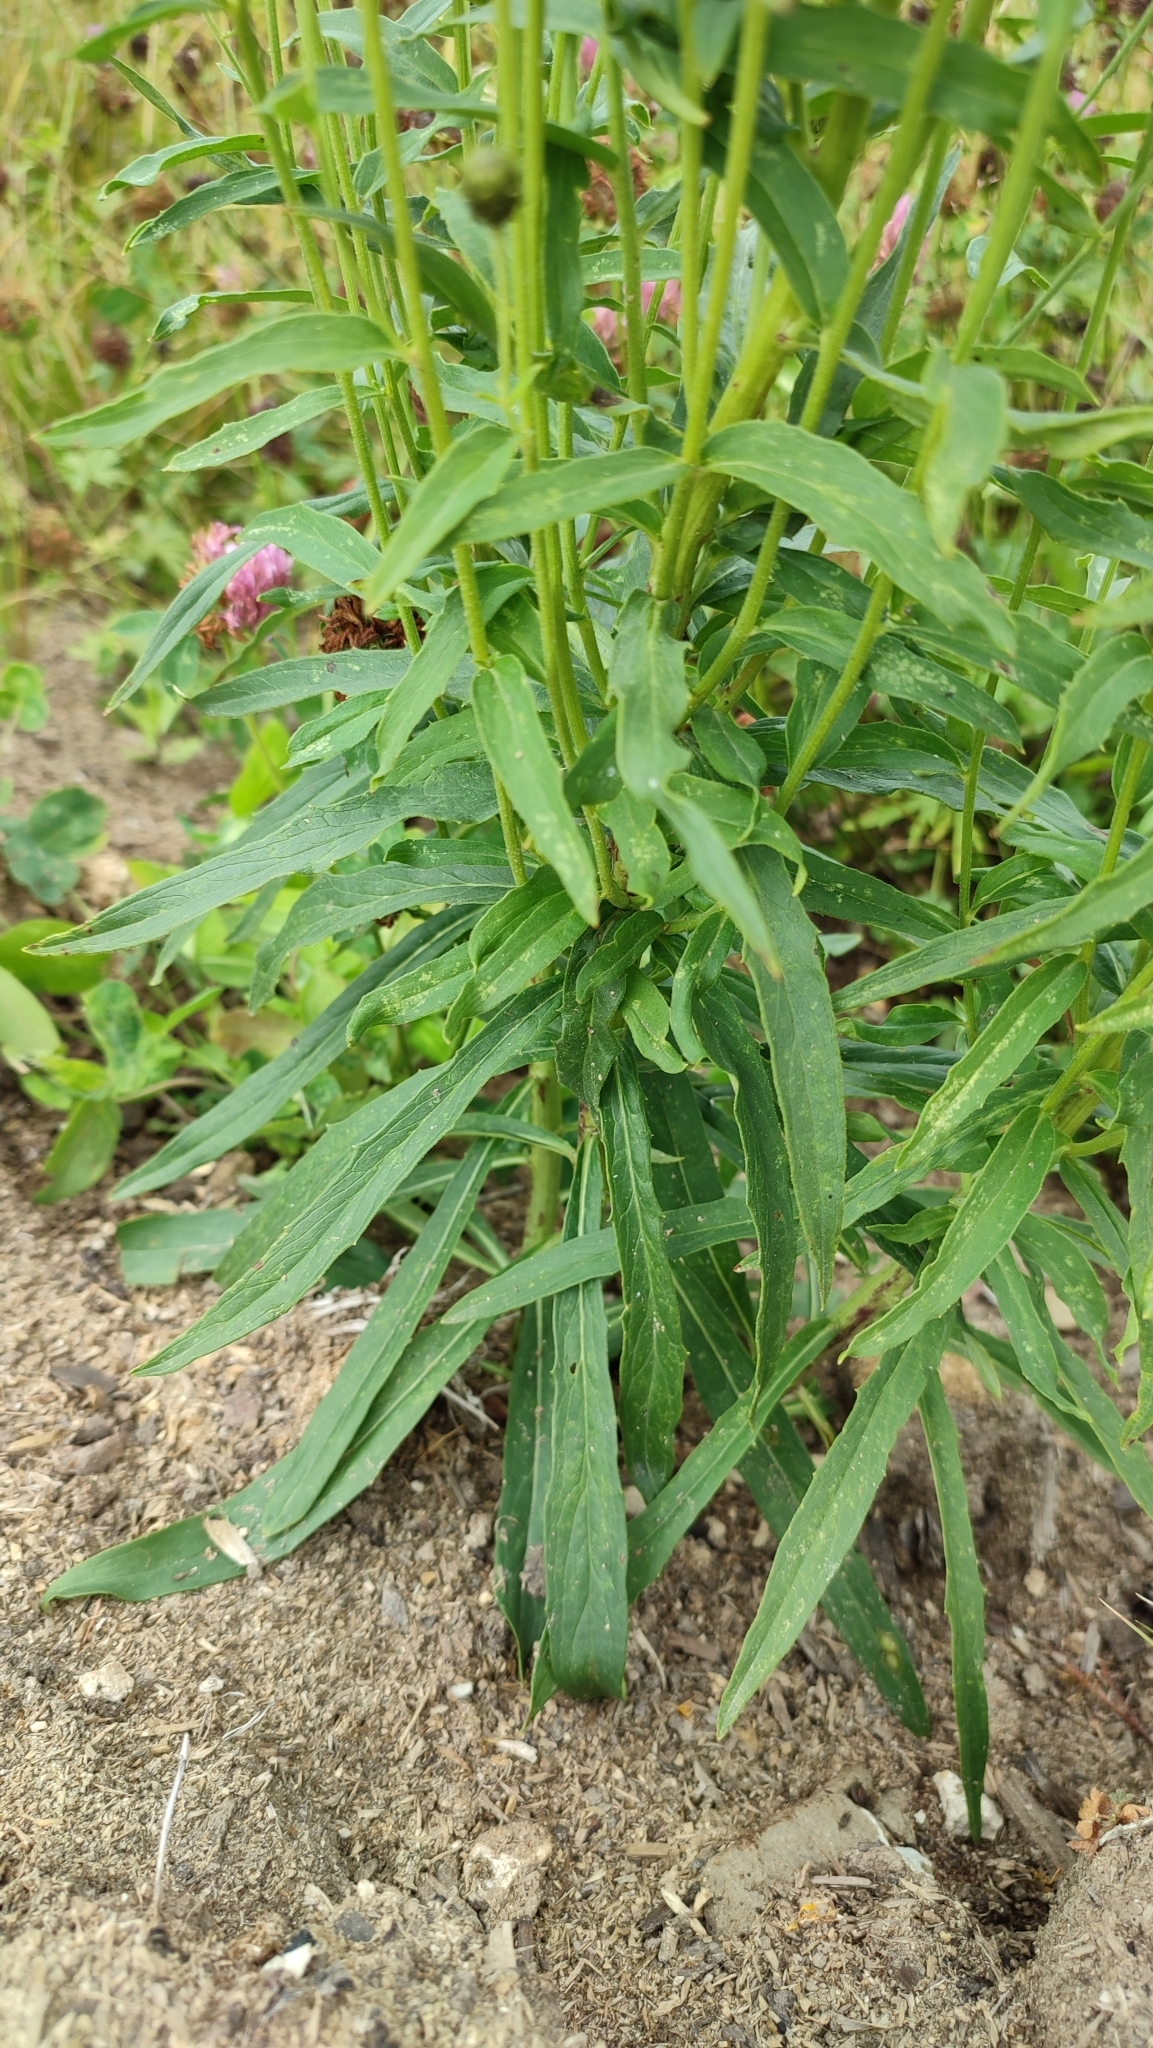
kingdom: Plantae
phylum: Tracheophyta
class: Magnoliopsida
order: Asterales
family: Asteraceae
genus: Hieracium
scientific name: Hieracium umbellatum
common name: Northern hawkweed
